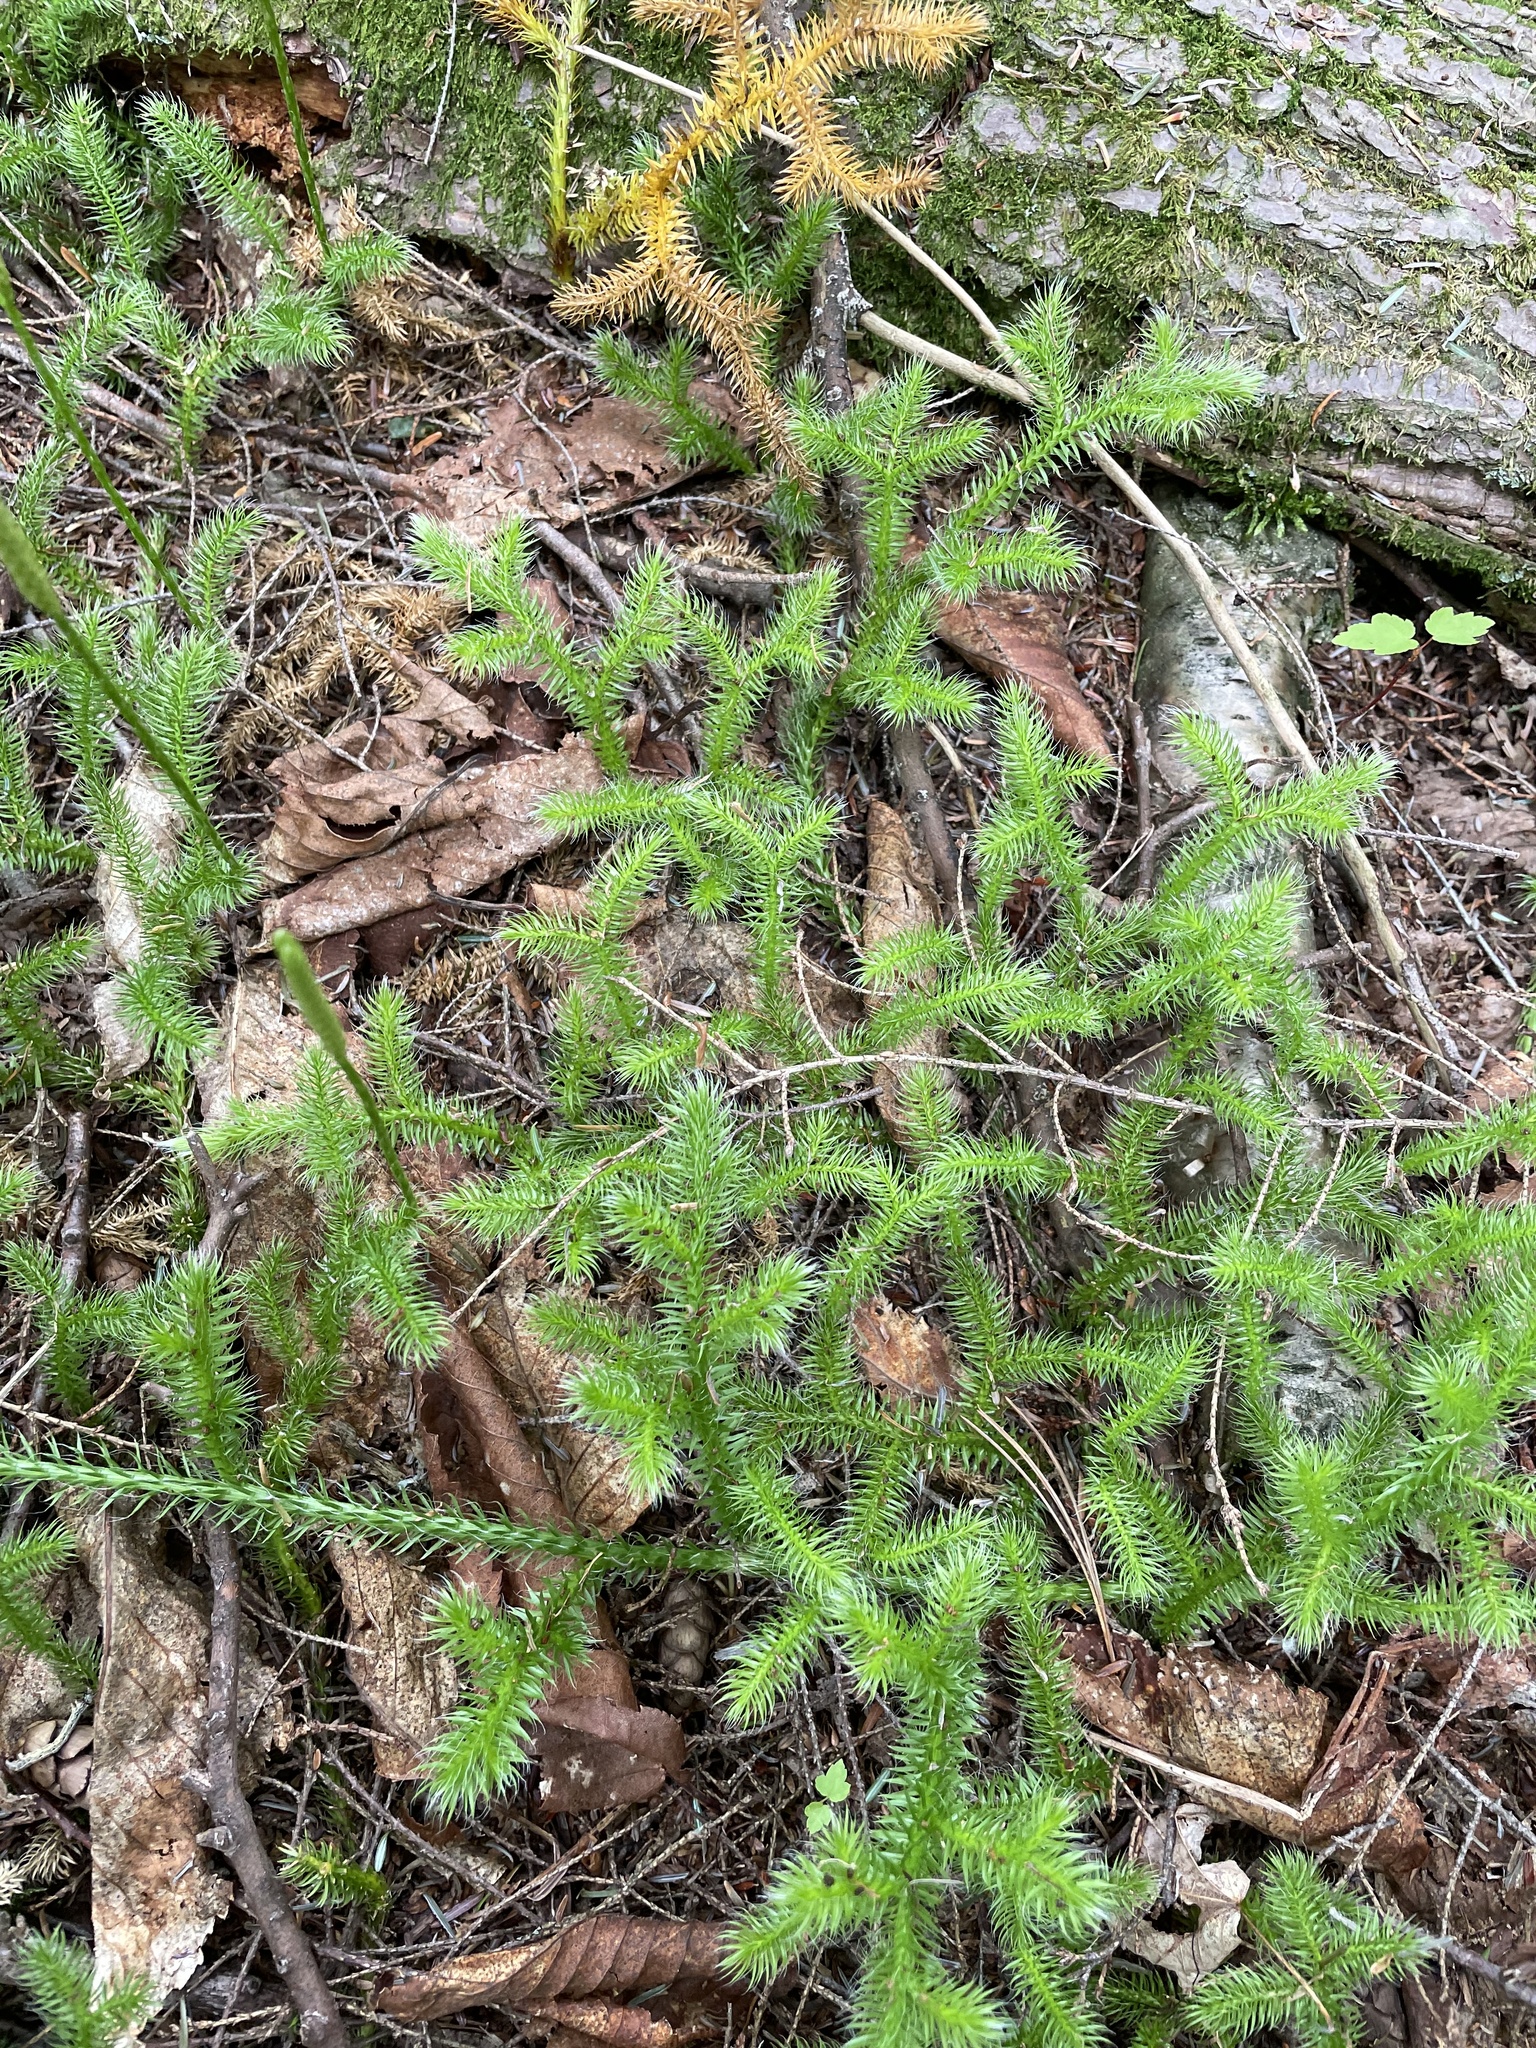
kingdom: Plantae
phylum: Tracheophyta
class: Lycopodiopsida
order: Lycopodiales
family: Lycopodiaceae
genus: Lycopodium
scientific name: Lycopodium clavatum
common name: Stag's-horn clubmoss
